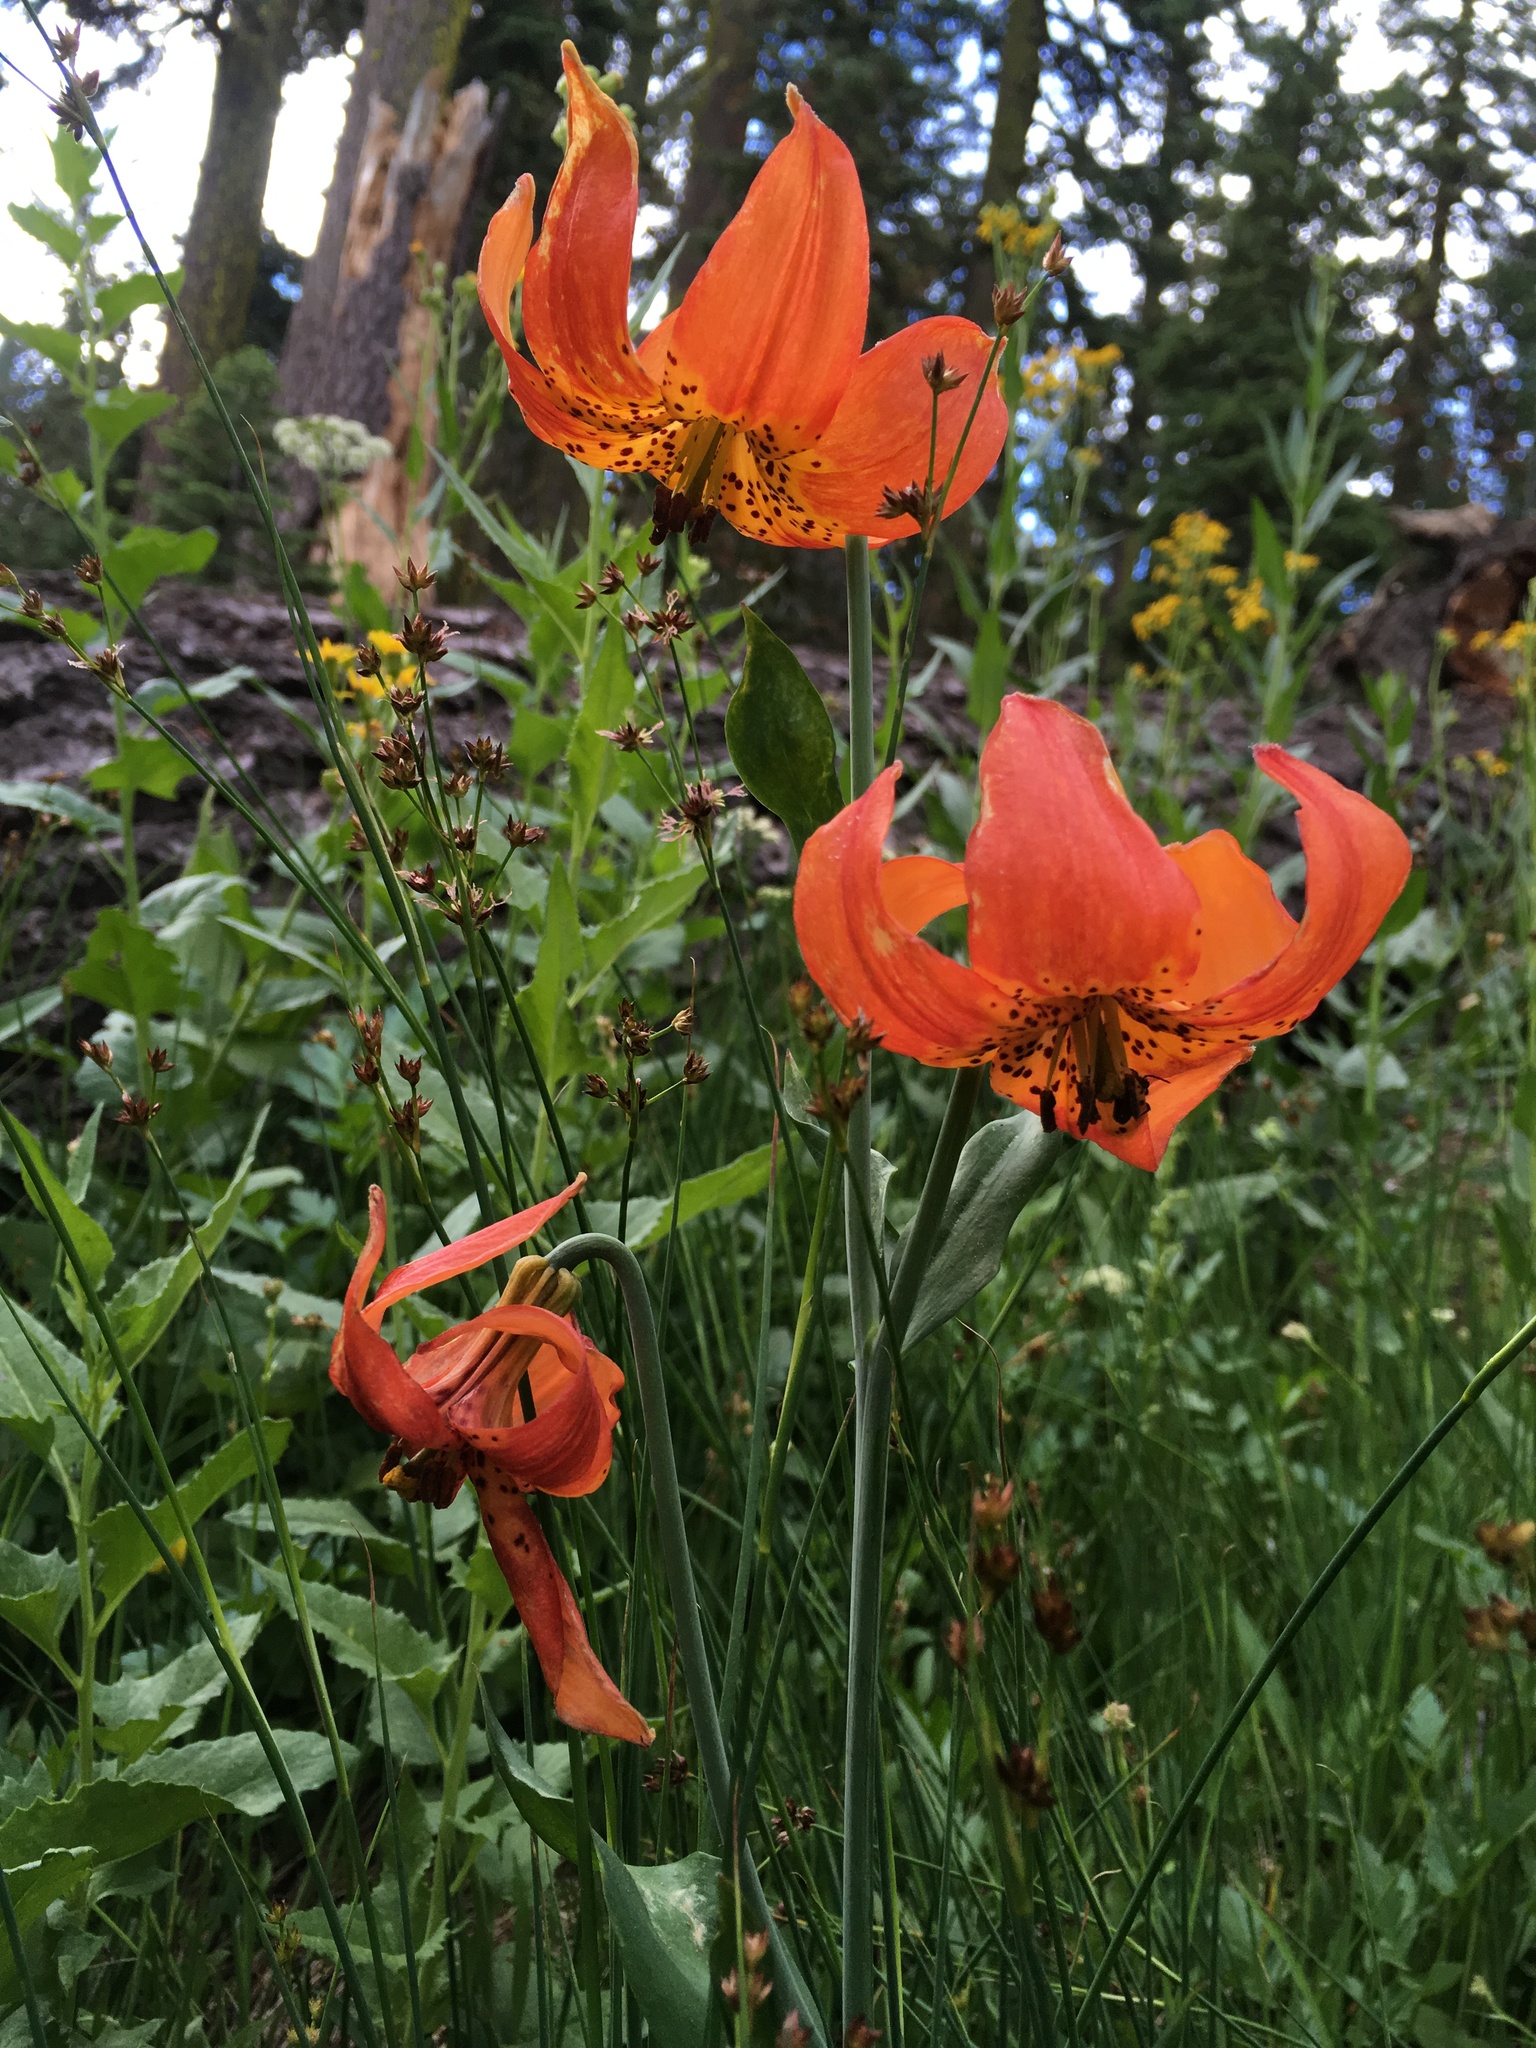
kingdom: Plantae
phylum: Tracheophyta
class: Liliopsida
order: Liliales
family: Liliaceae
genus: Lilium
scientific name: Lilium pardalinum
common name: Panther lily
